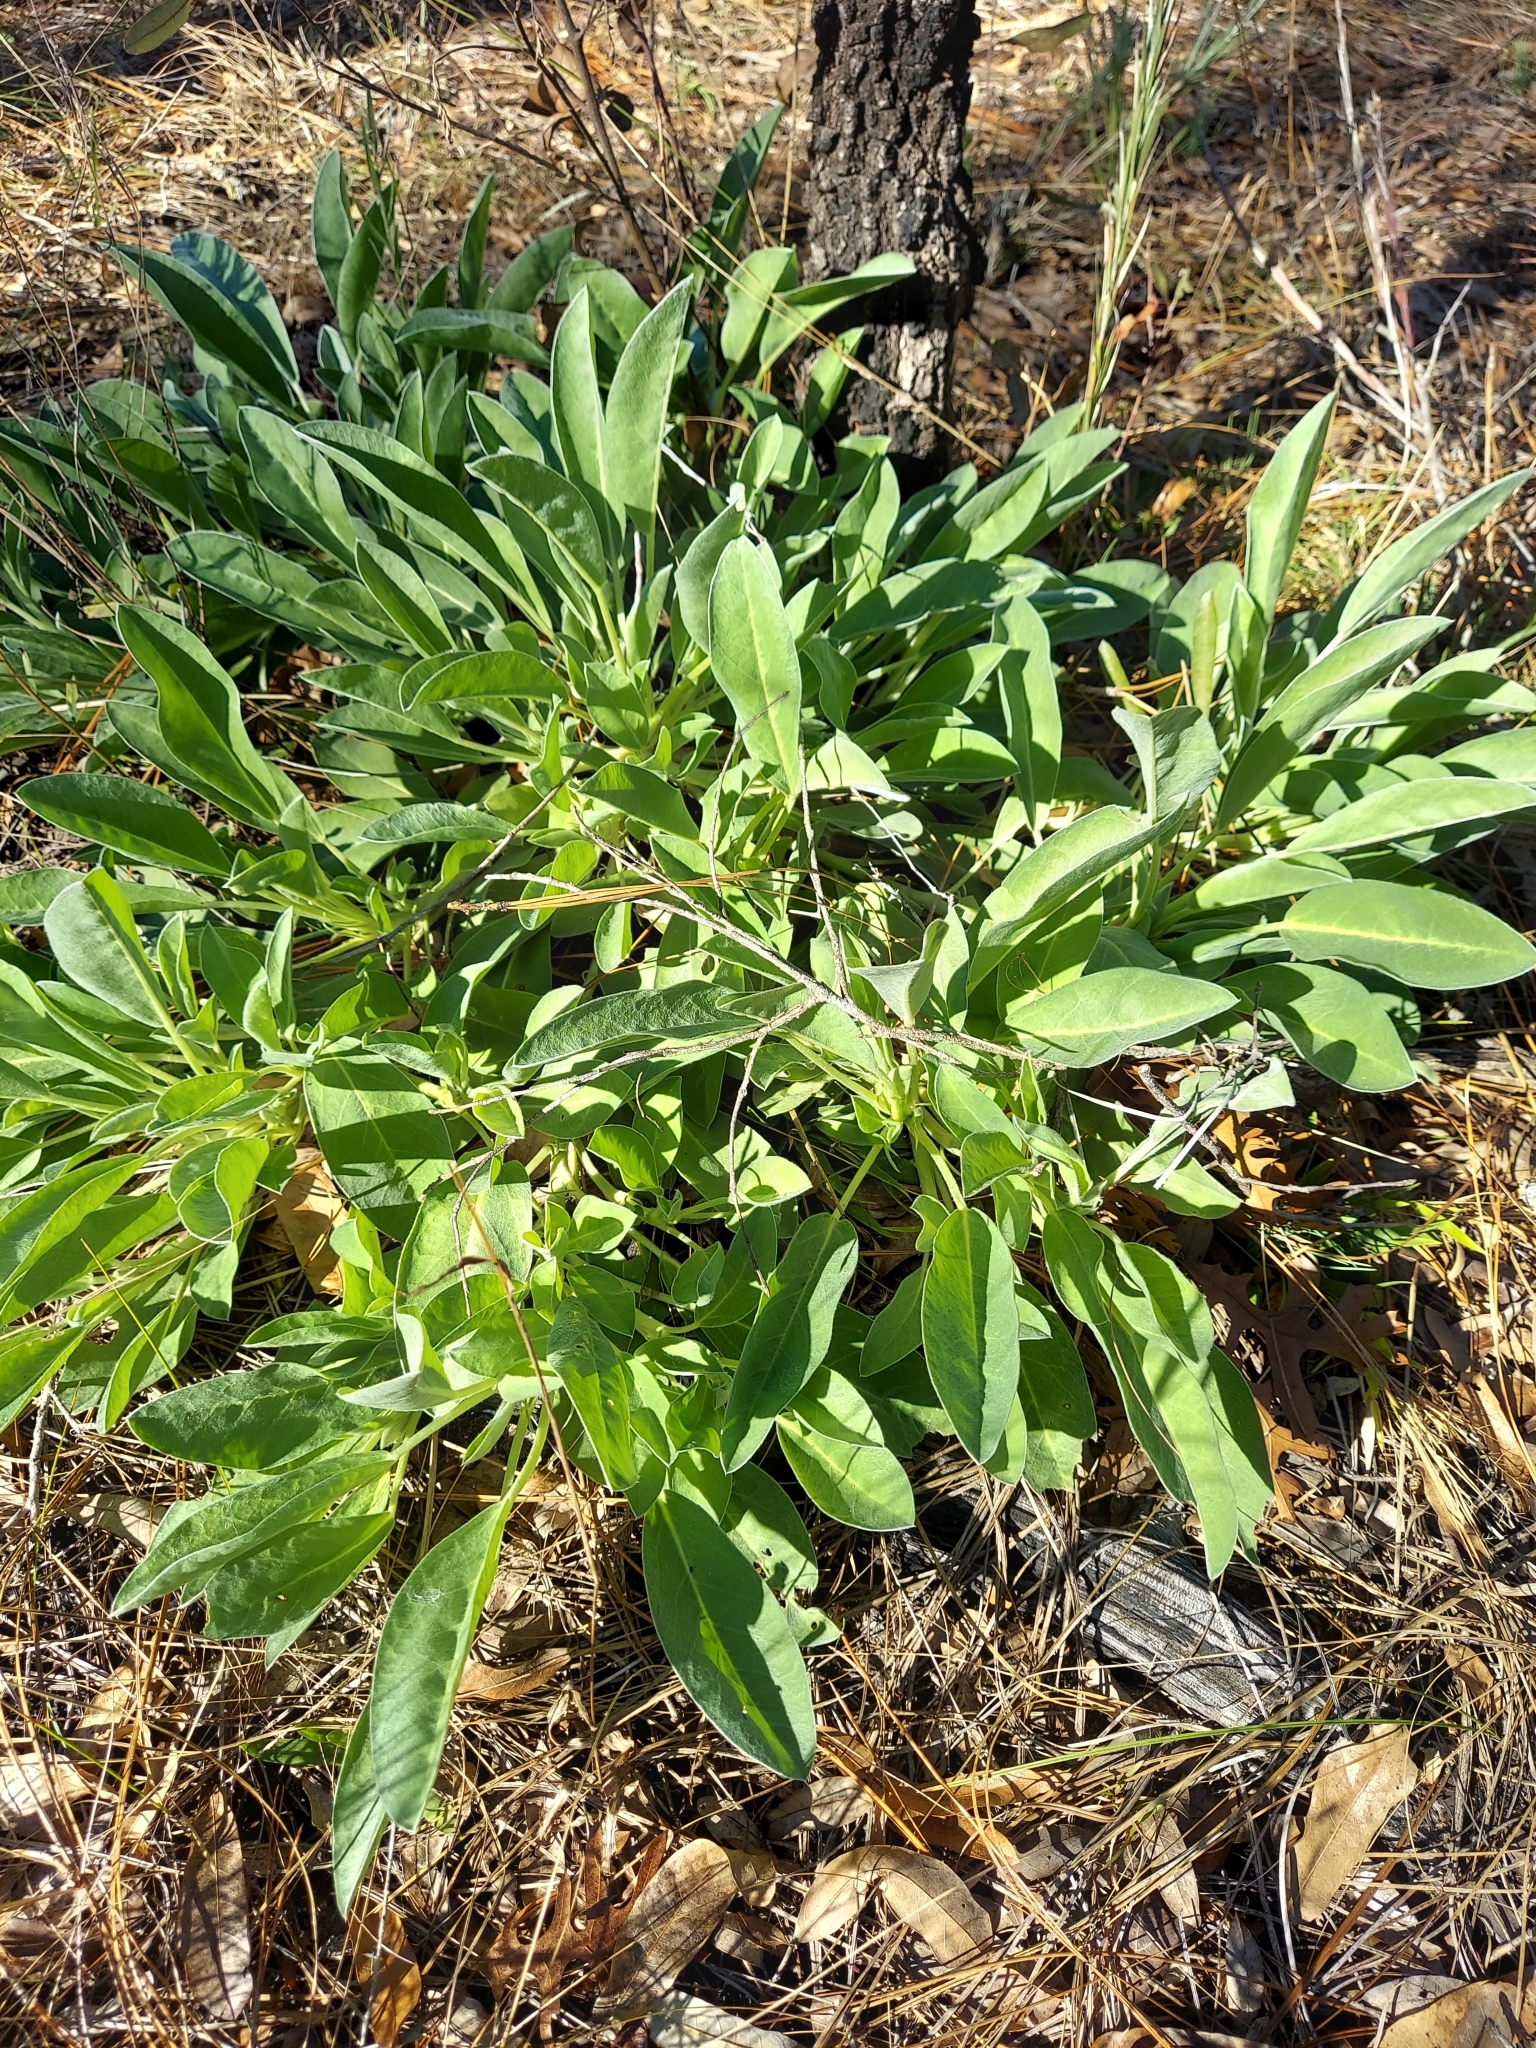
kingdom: Plantae
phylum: Tracheophyta
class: Magnoliopsida
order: Fabales
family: Fabaceae
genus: Lupinus
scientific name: Lupinus
